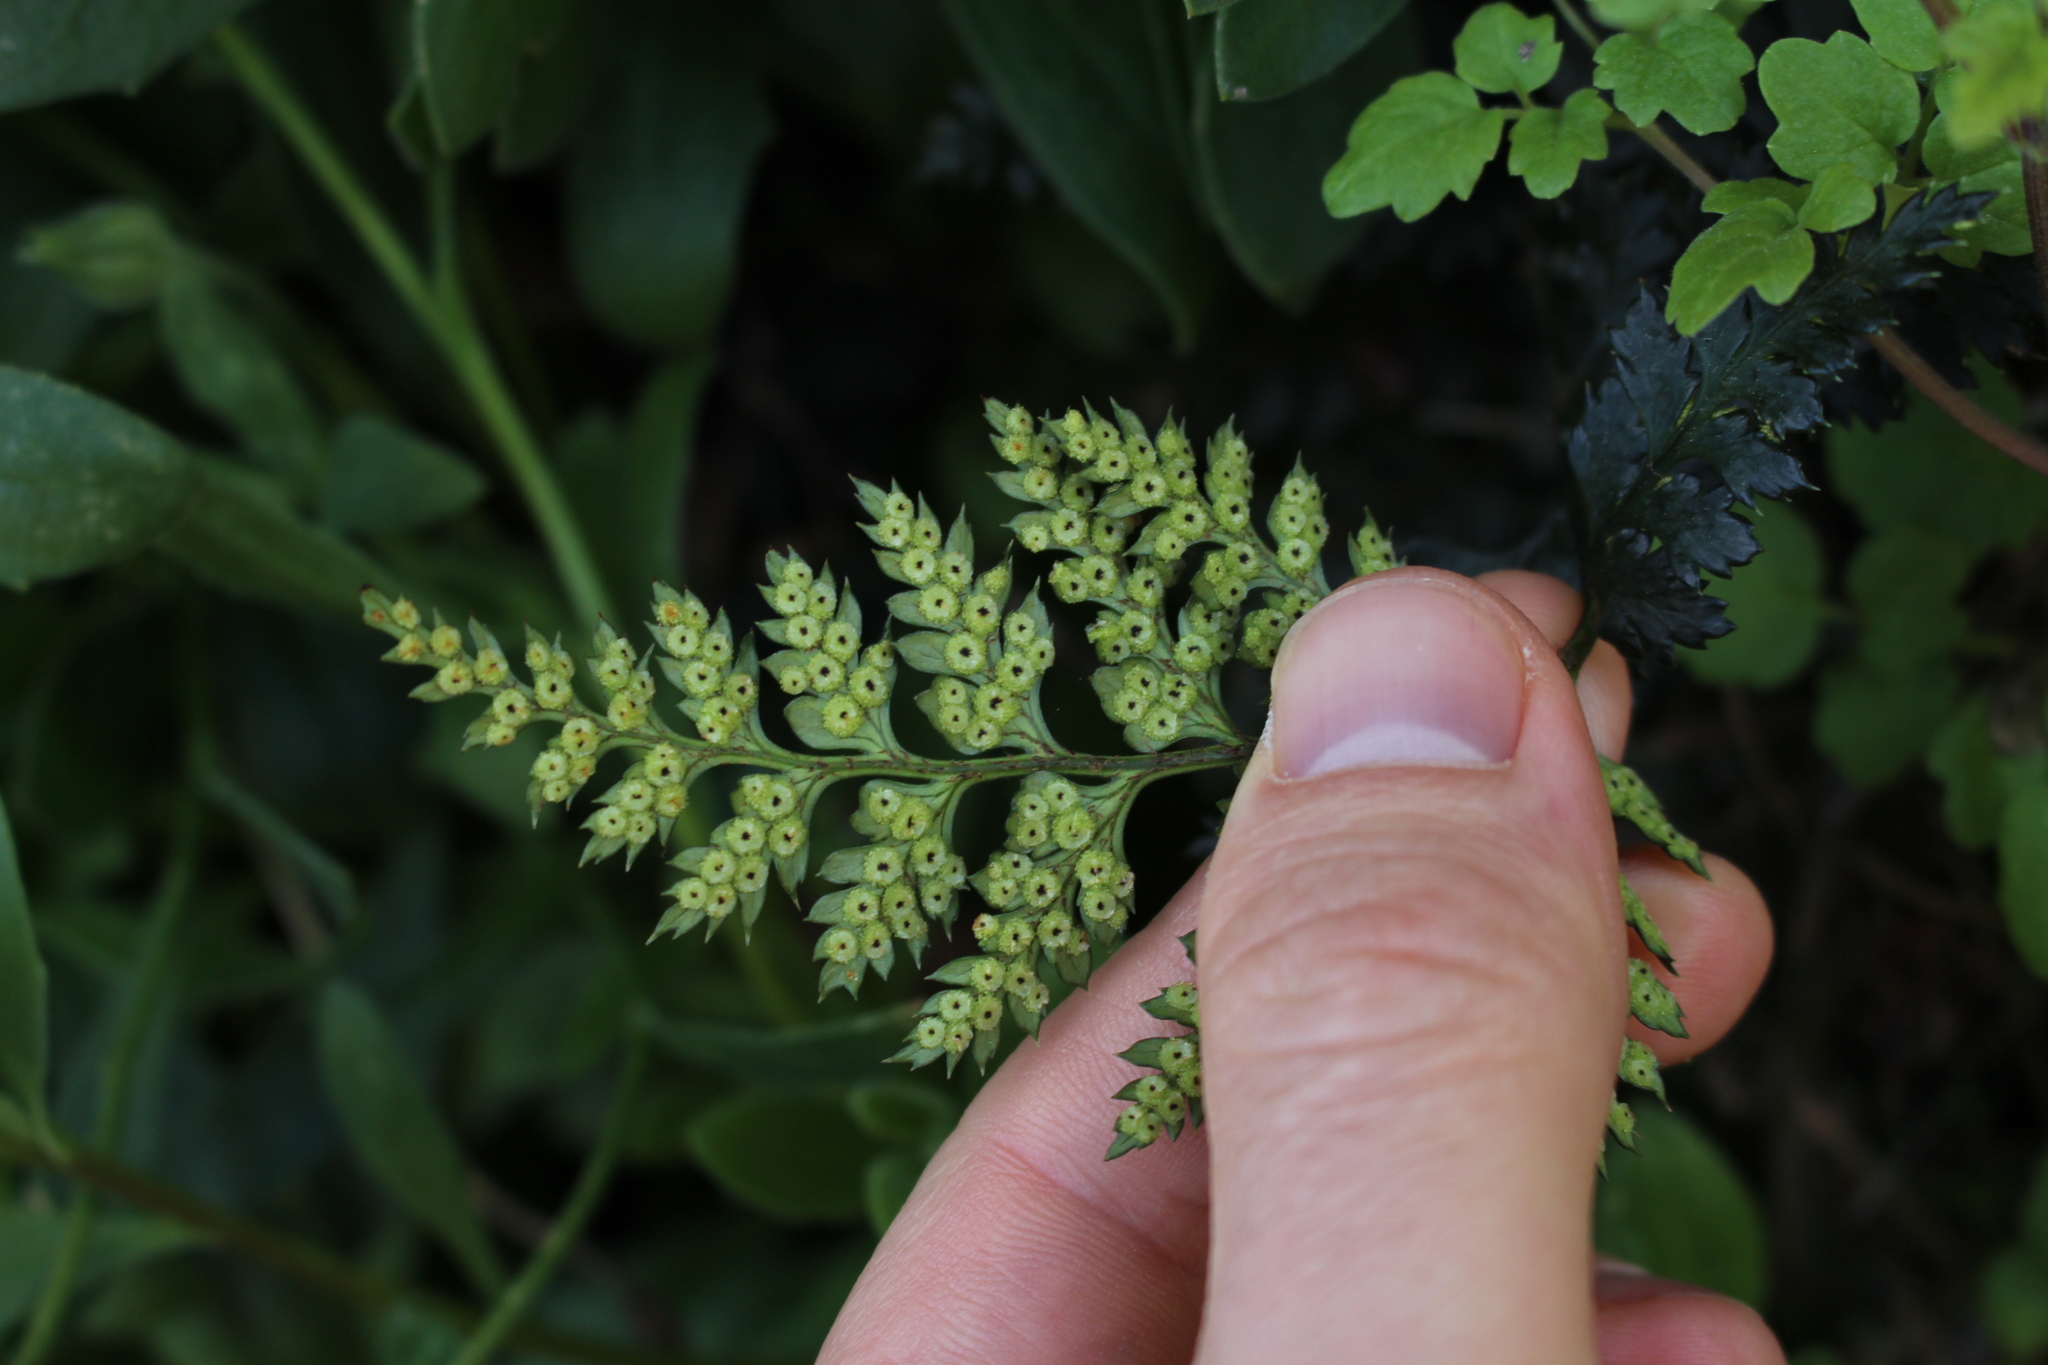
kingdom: Plantae
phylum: Tracheophyta
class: Polypodiopsida
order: Polypodiales
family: Dryopteridaceae
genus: Polystichum
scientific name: Polystichum oculatum
